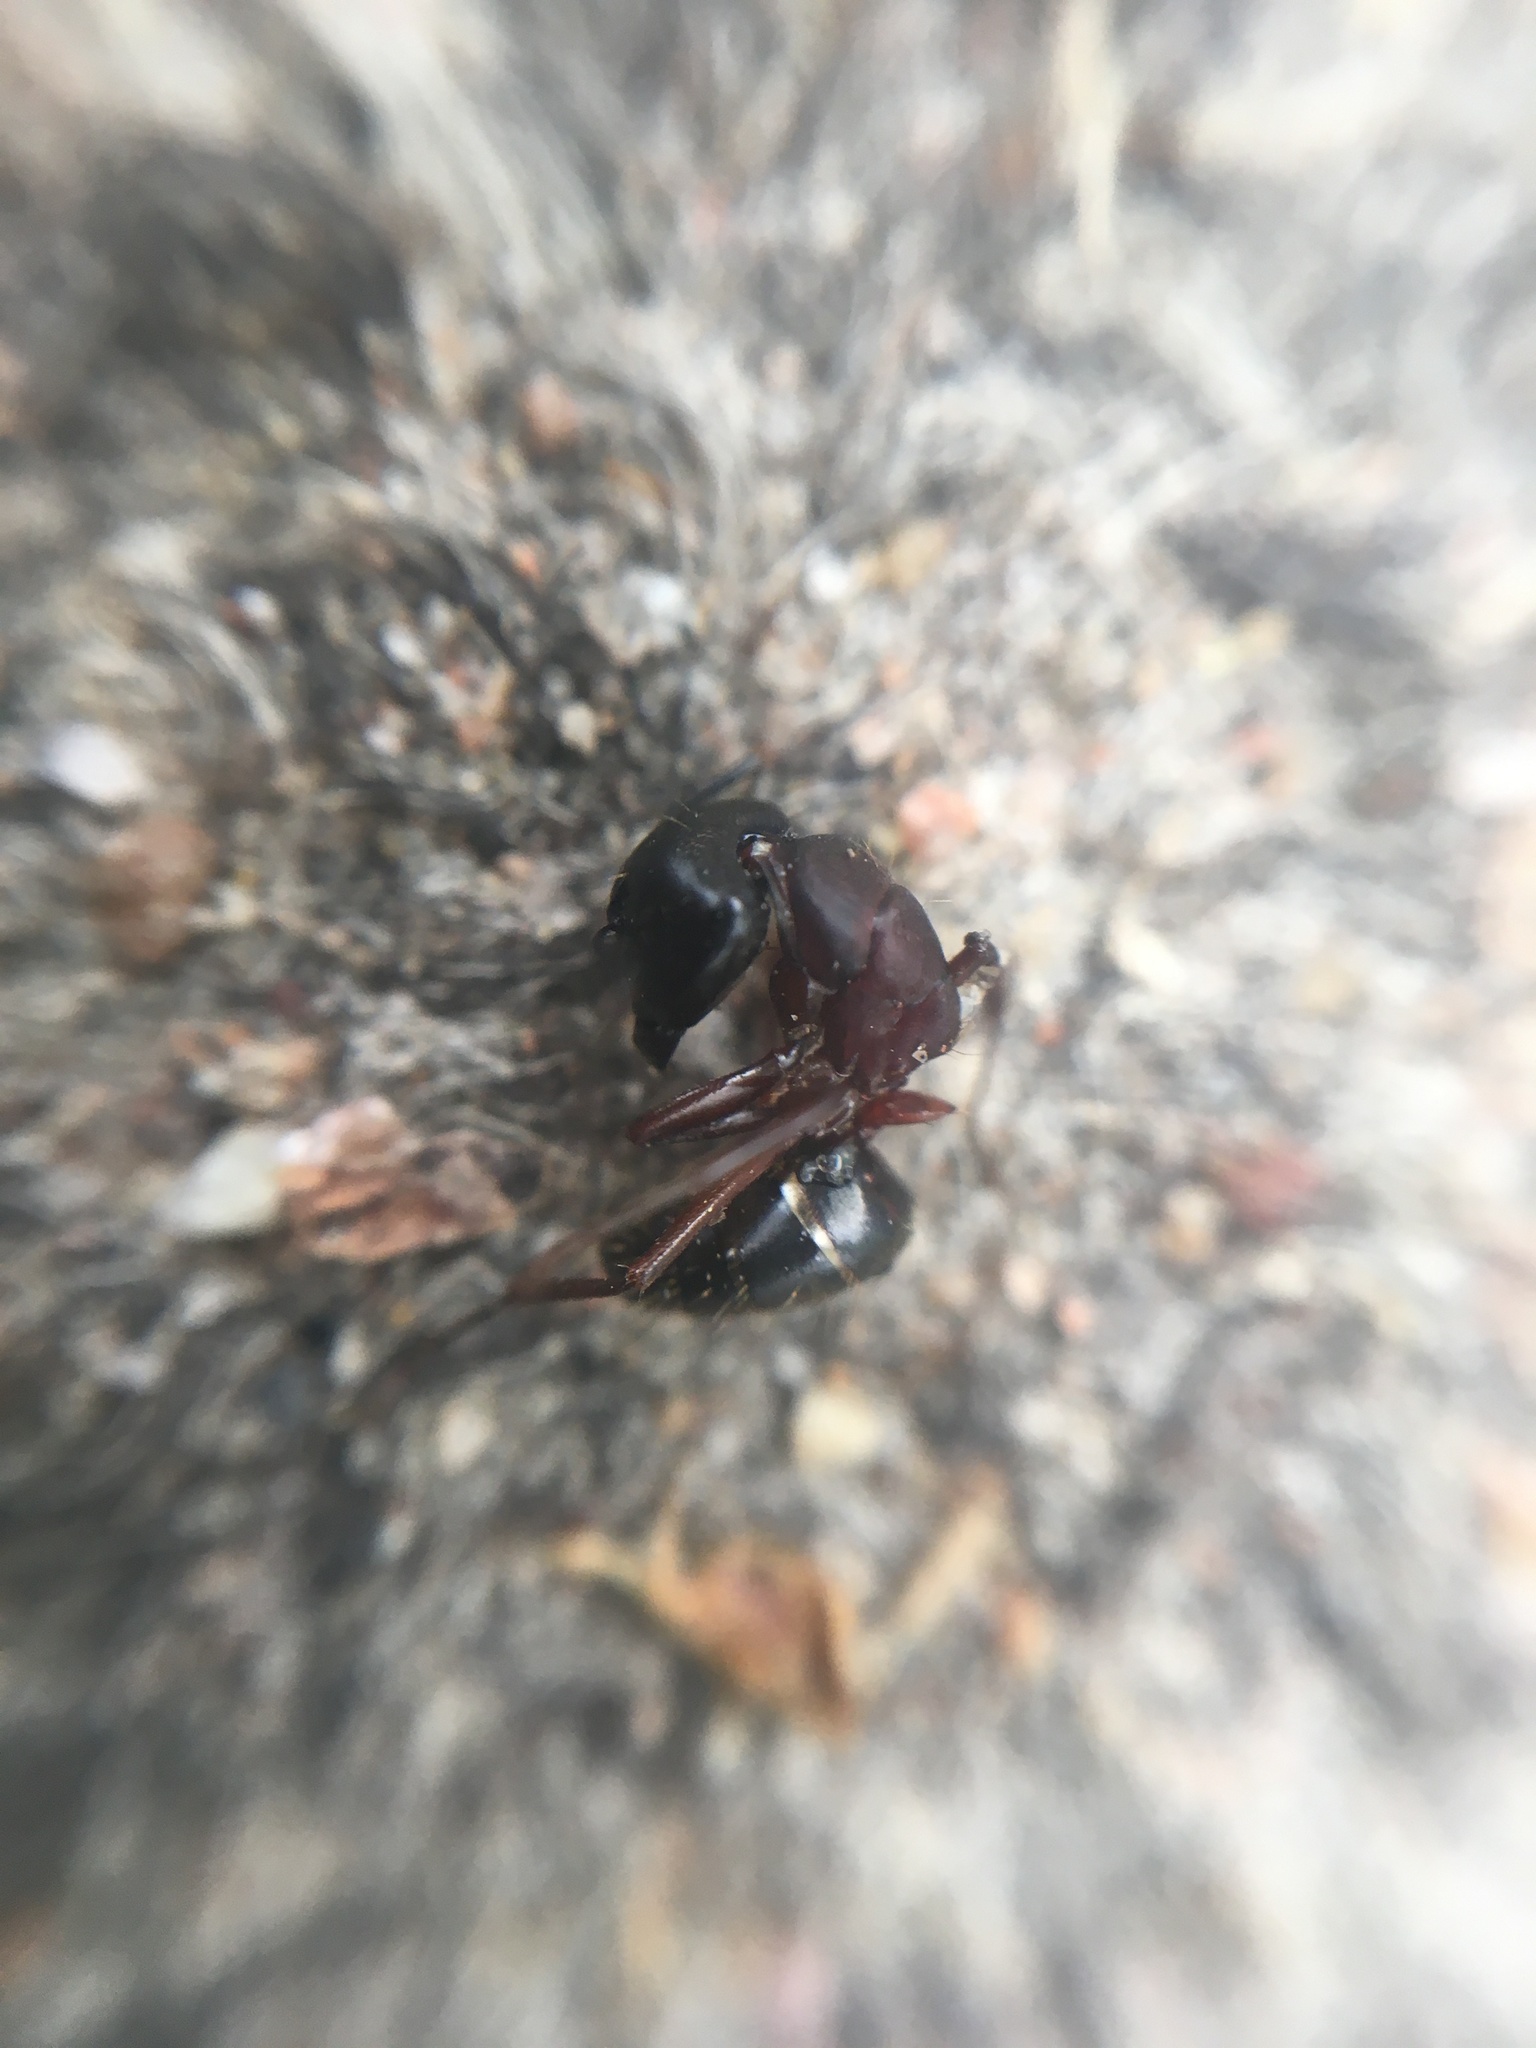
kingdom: Animalia
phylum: Arthropoda
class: Insecta
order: Hymenoptera
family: Formicidae
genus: Camponotus
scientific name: Camponotus herculeanus
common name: Hercules ant
